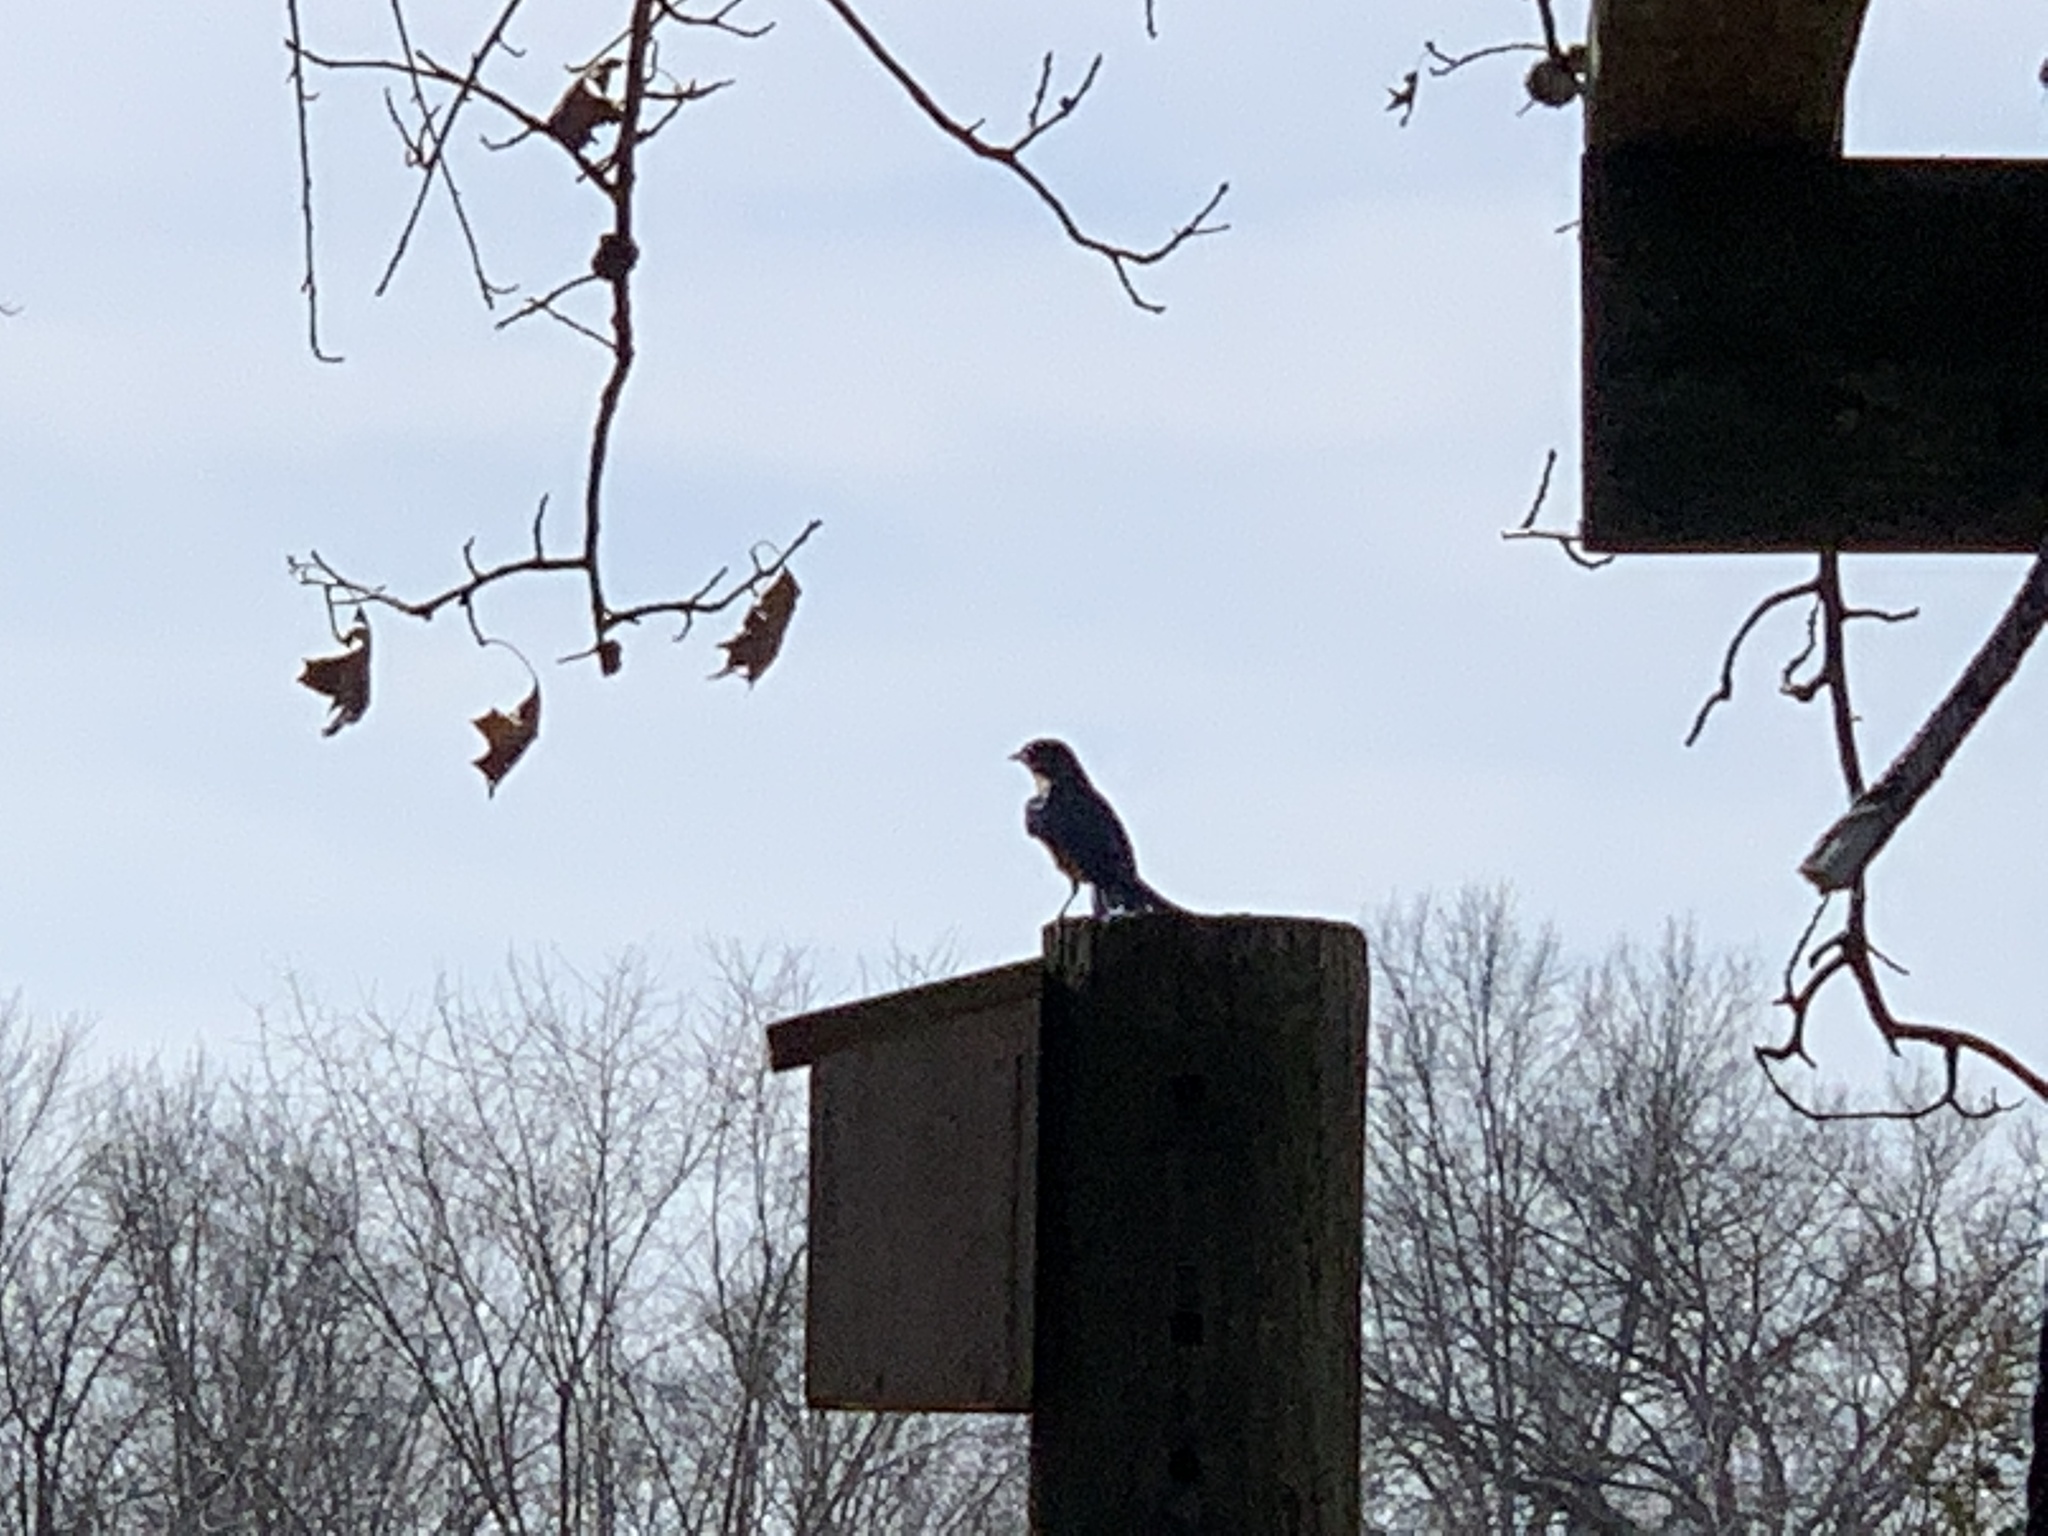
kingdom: Animalia
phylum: Chordata
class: Aves
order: Passeriformes
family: Turdidae
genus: Sialia
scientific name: Sialia sialis
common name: Eastern bluebird
